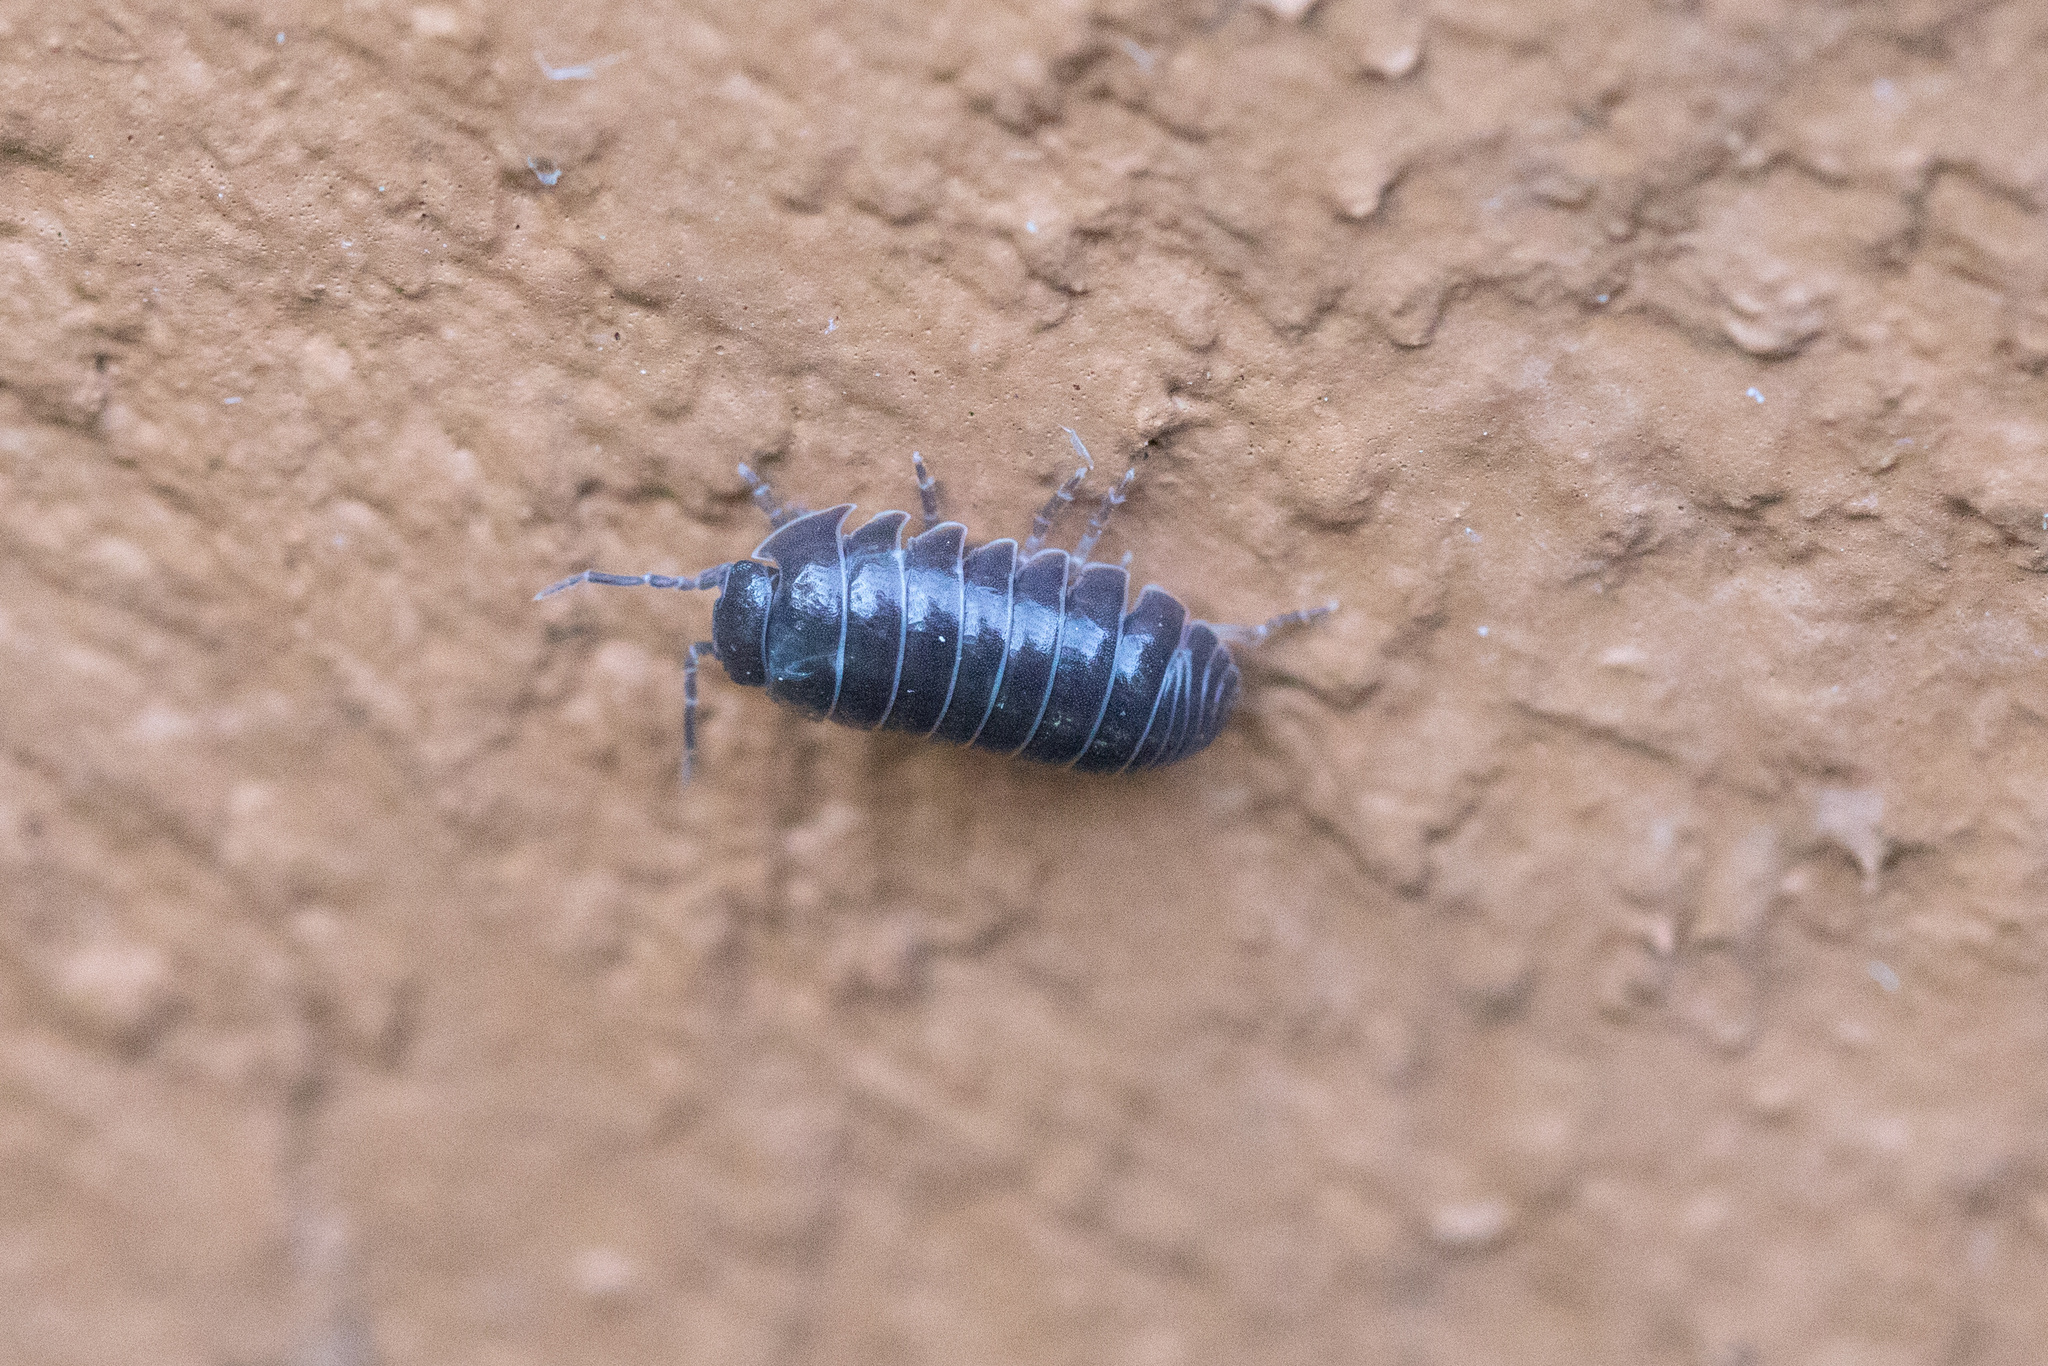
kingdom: Animalia
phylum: Arthropoda
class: Malacostraca
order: Isopoda
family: Armadillidiidae
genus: Armadillidium
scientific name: Armadillidium vulgare
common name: Common pill woodlouse
